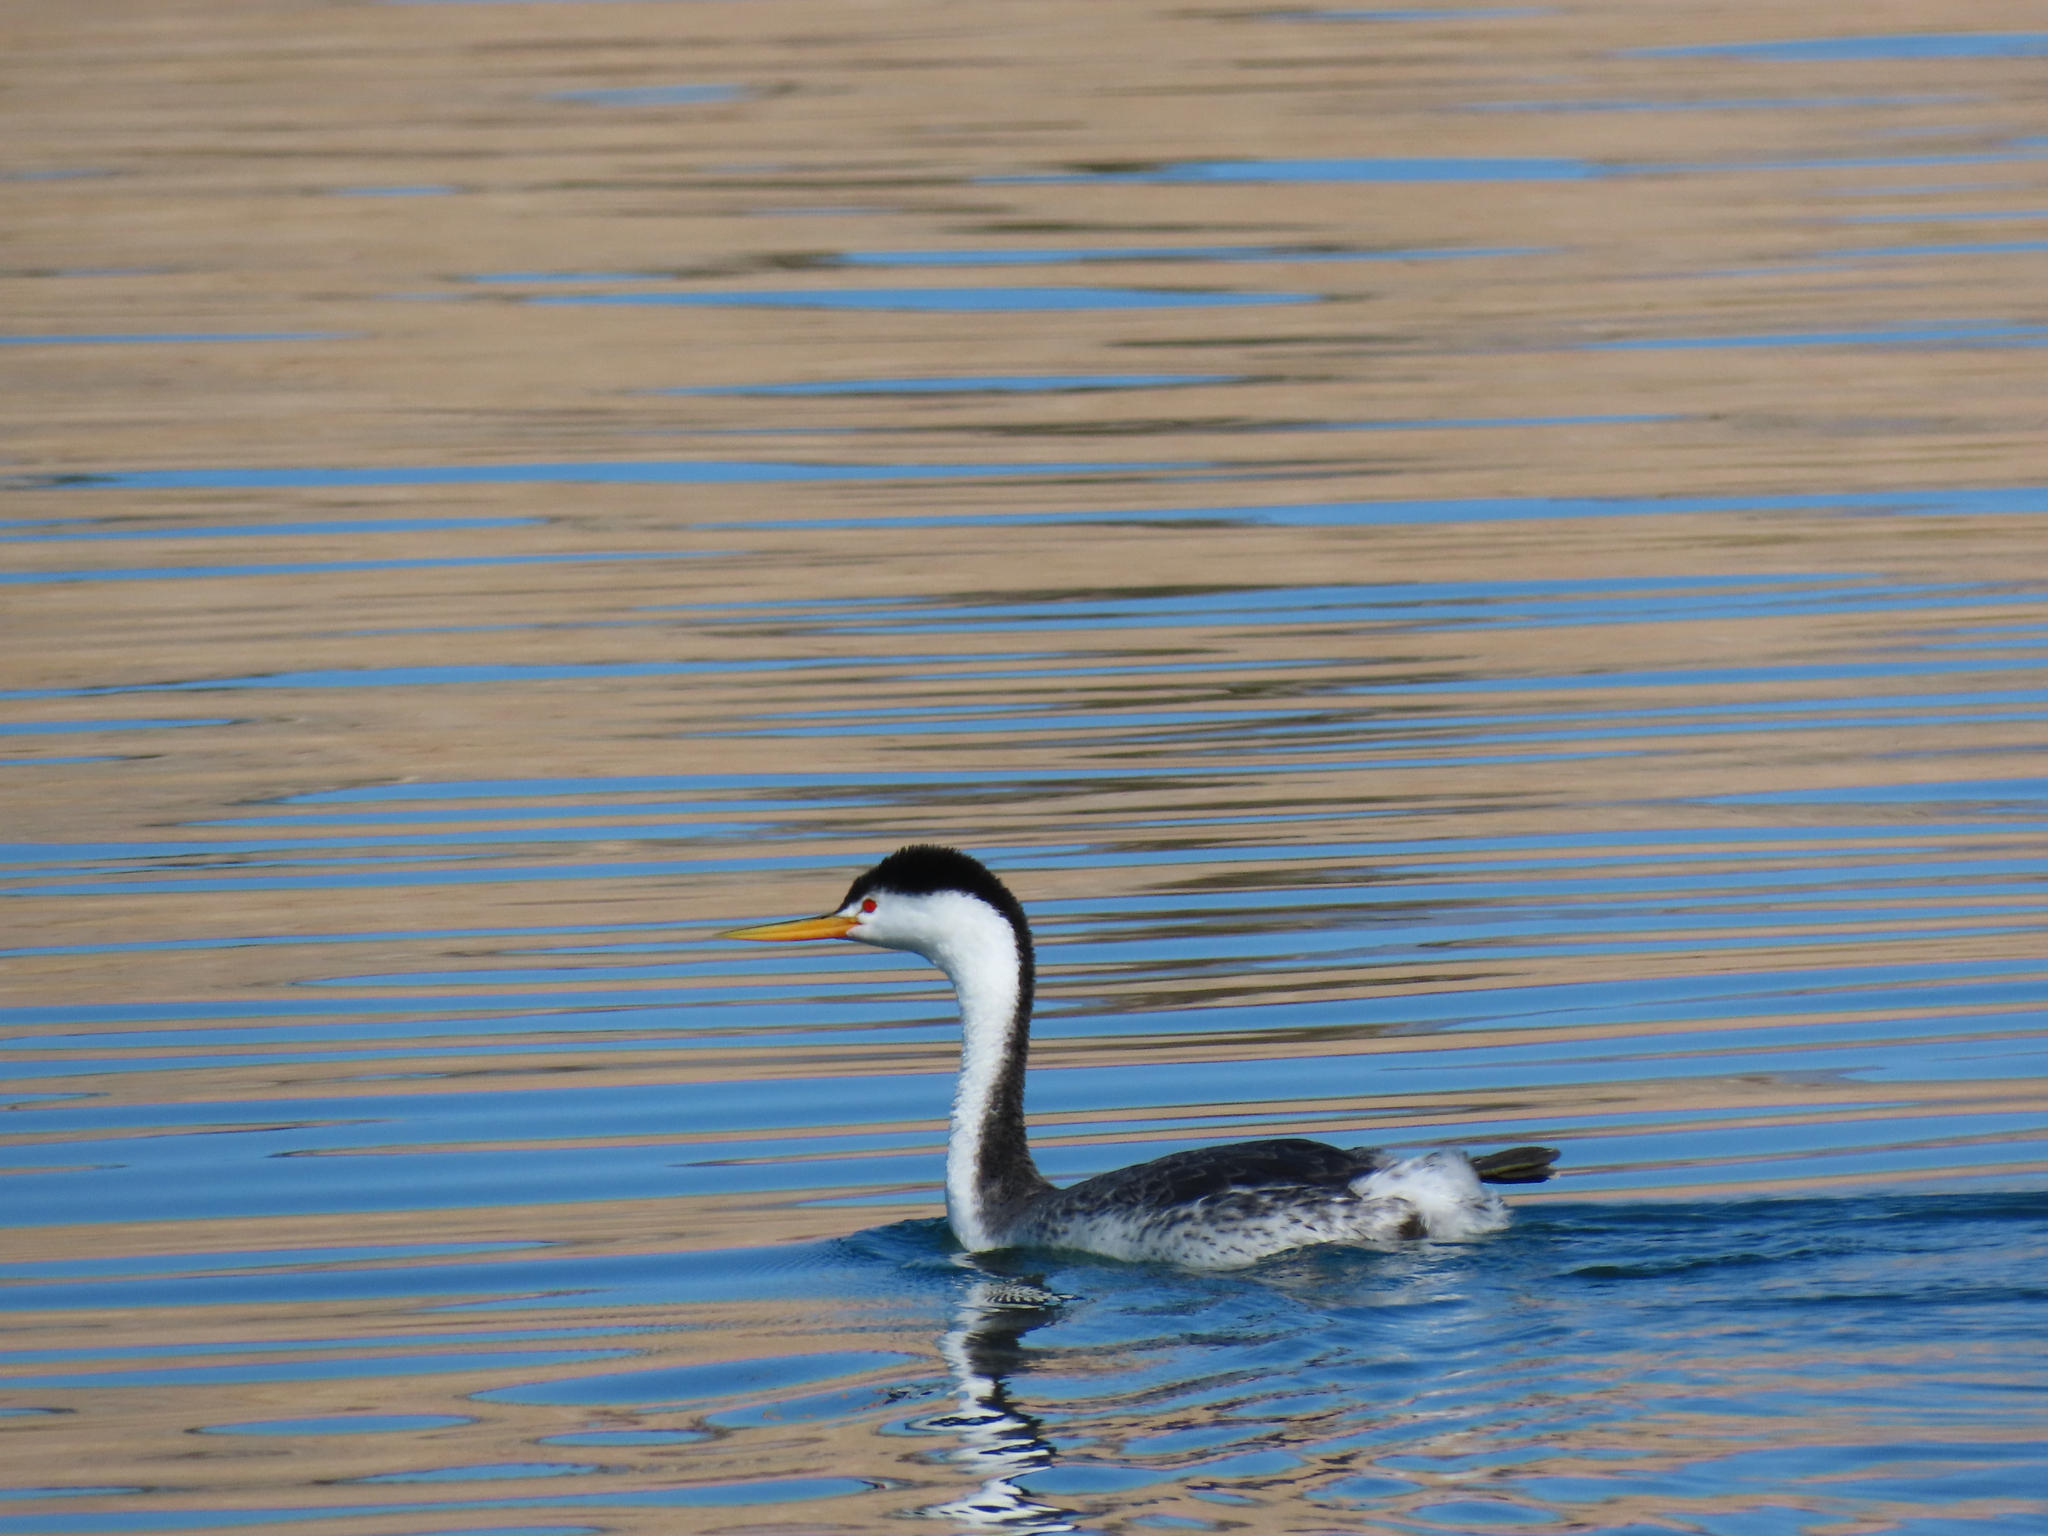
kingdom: Animalia
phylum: Chordata
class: Aves
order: Podicipediformes
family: Podicipedidae
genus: Aechmophorus
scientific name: Aechmophorus clarkii
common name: Clark's grebe
